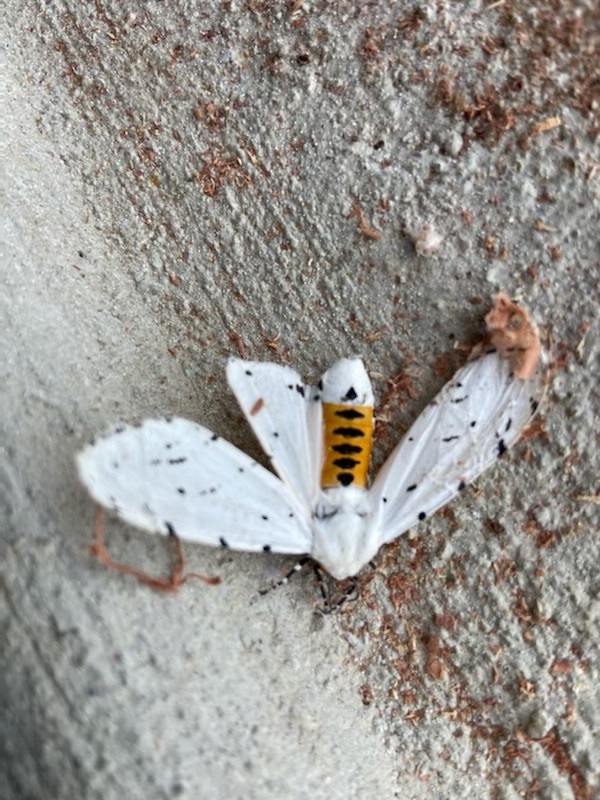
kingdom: Animalia
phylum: Arthropoda
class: Insecta
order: Lepidoptera
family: Erebidae
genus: Estigmene
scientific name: Estigmene acrea
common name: Salt marsh moth
